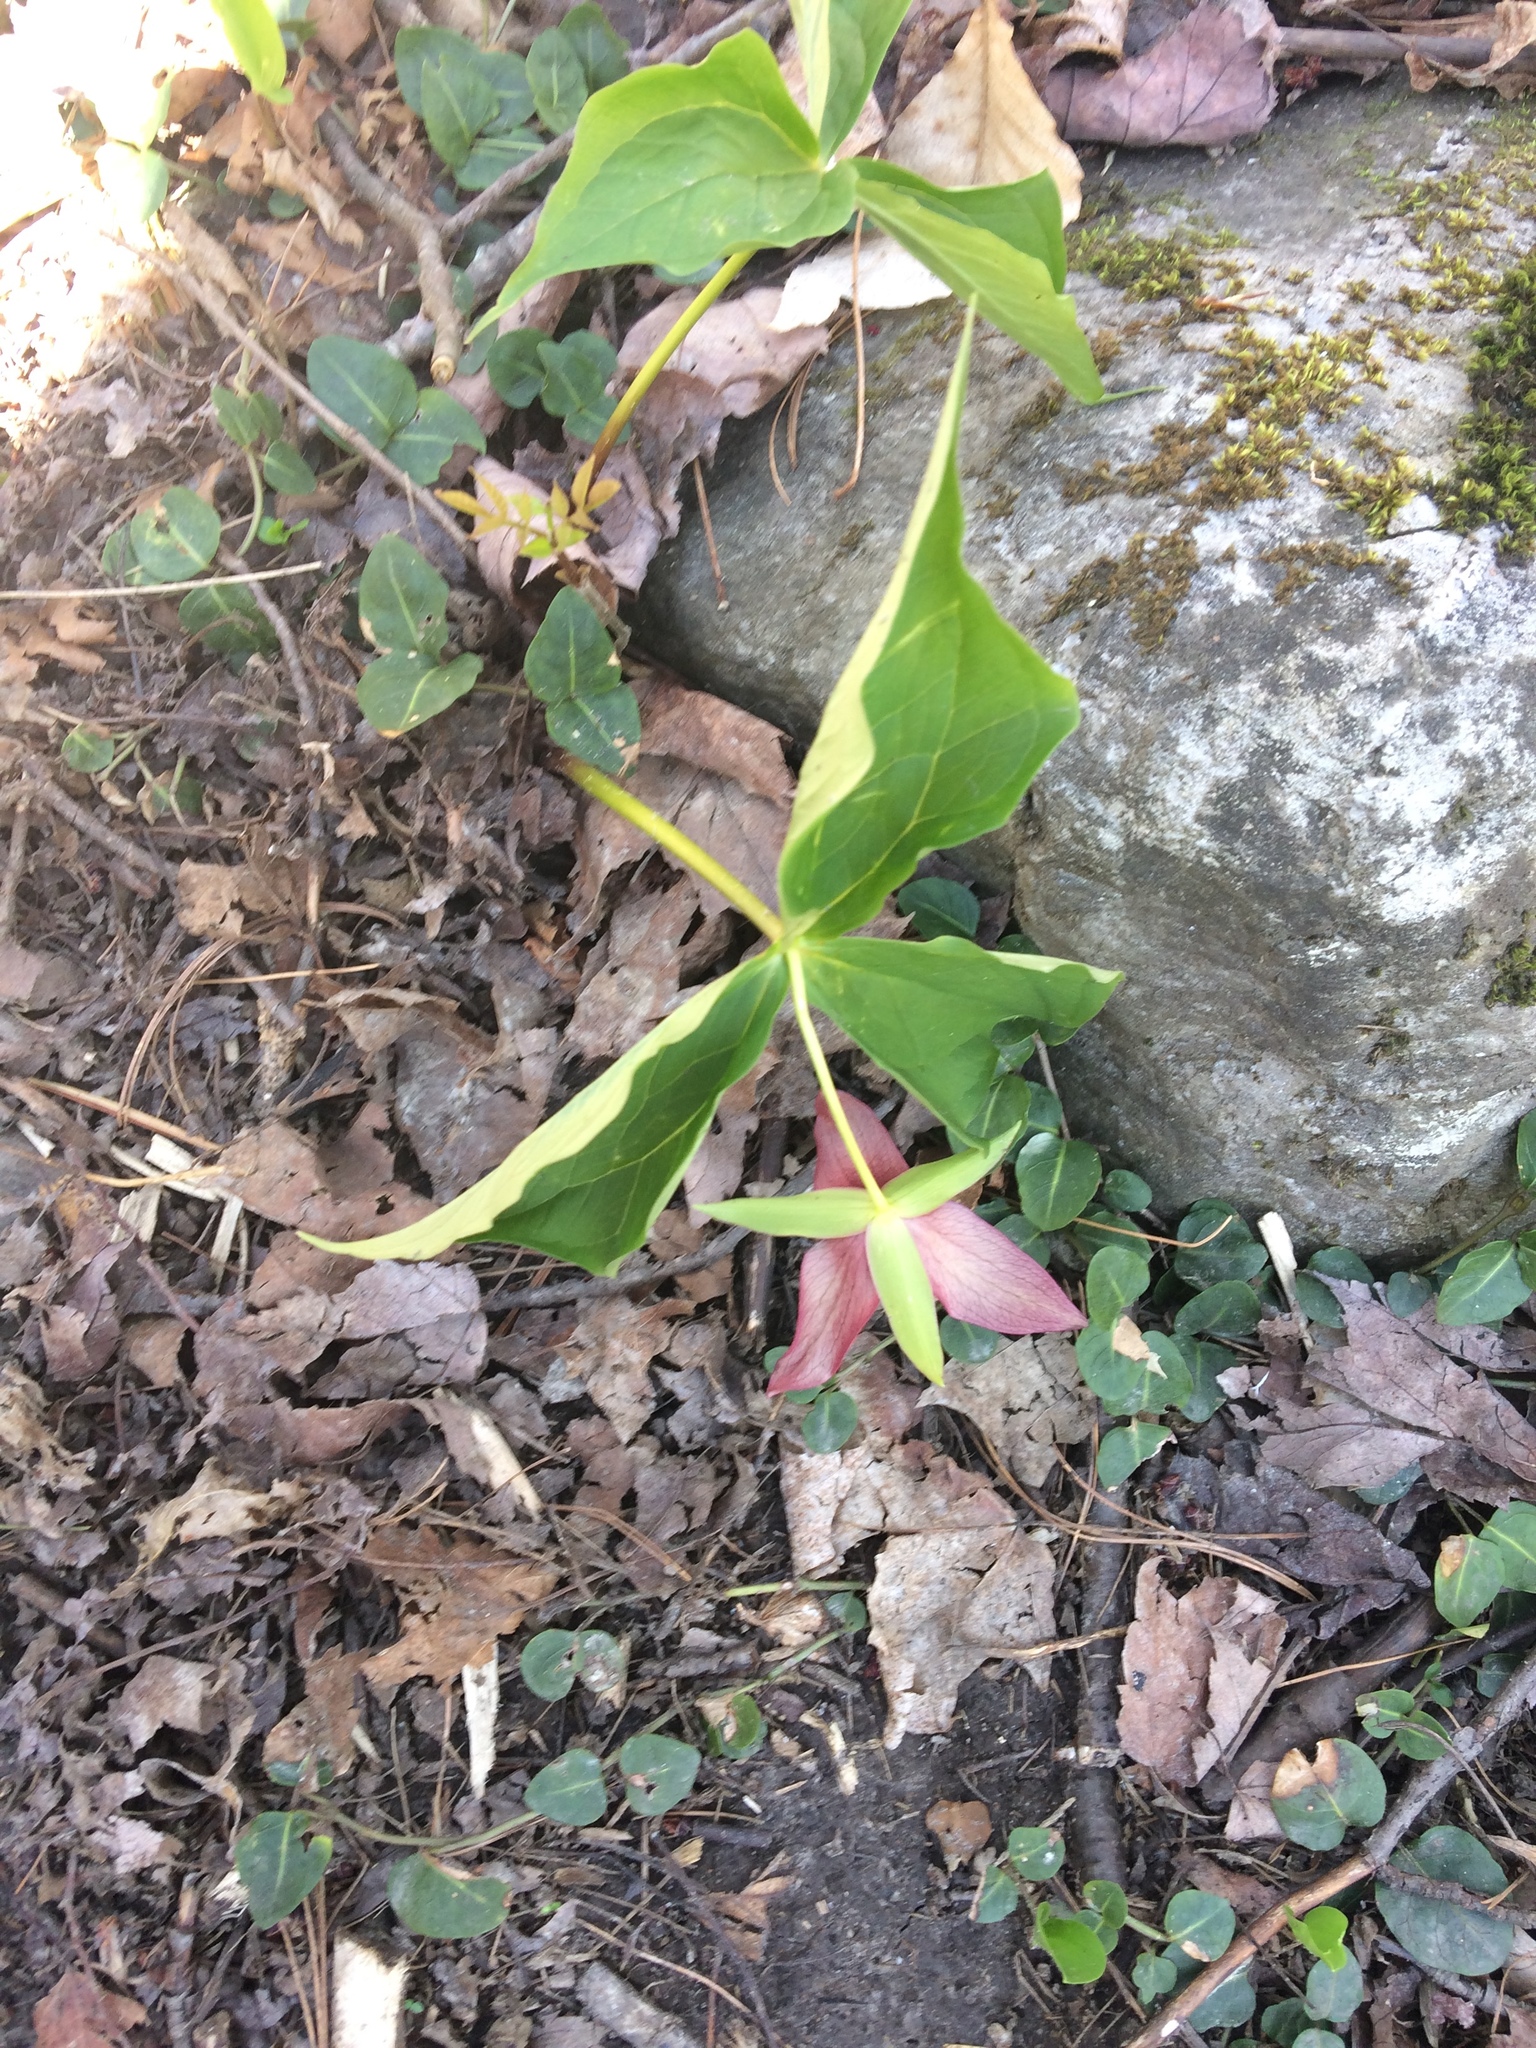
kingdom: Plantae
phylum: Tracheophyta
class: Liliopsida
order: Liliales
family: Melanthiaceae
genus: Trillium
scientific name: Trillium erectum
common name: Purple trillium
